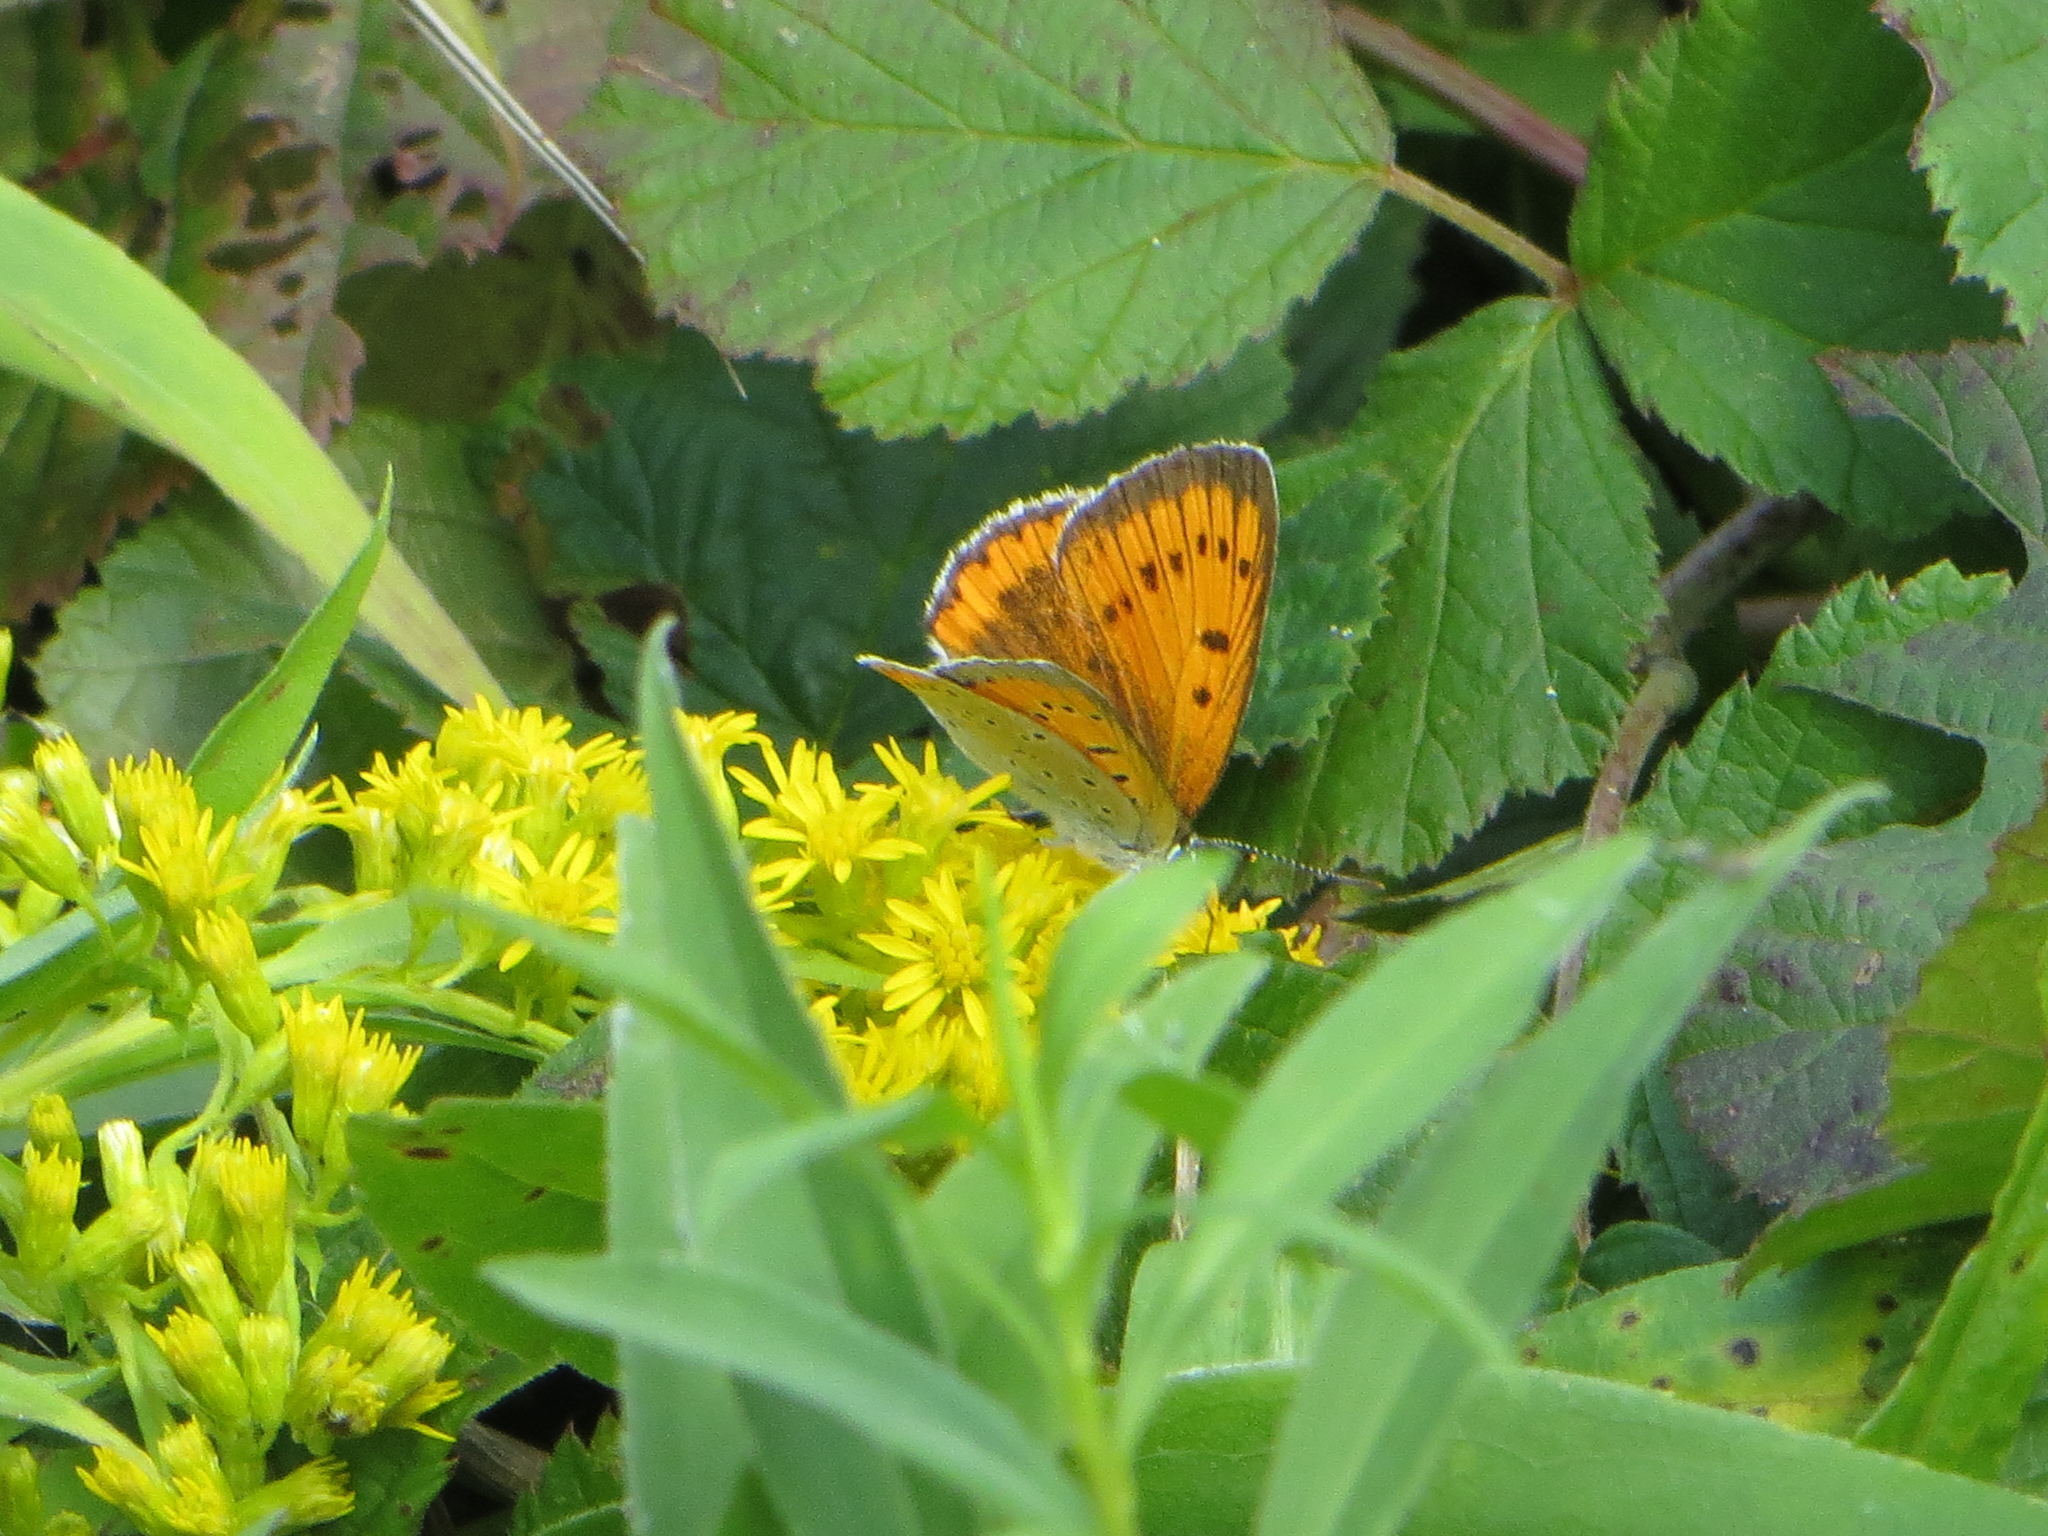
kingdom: Animalia
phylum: Arthropoda
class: Insecta
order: Lepidoptera
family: Lycaenidae
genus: Lycaena
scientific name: Lycaena dispar
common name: Large copper
